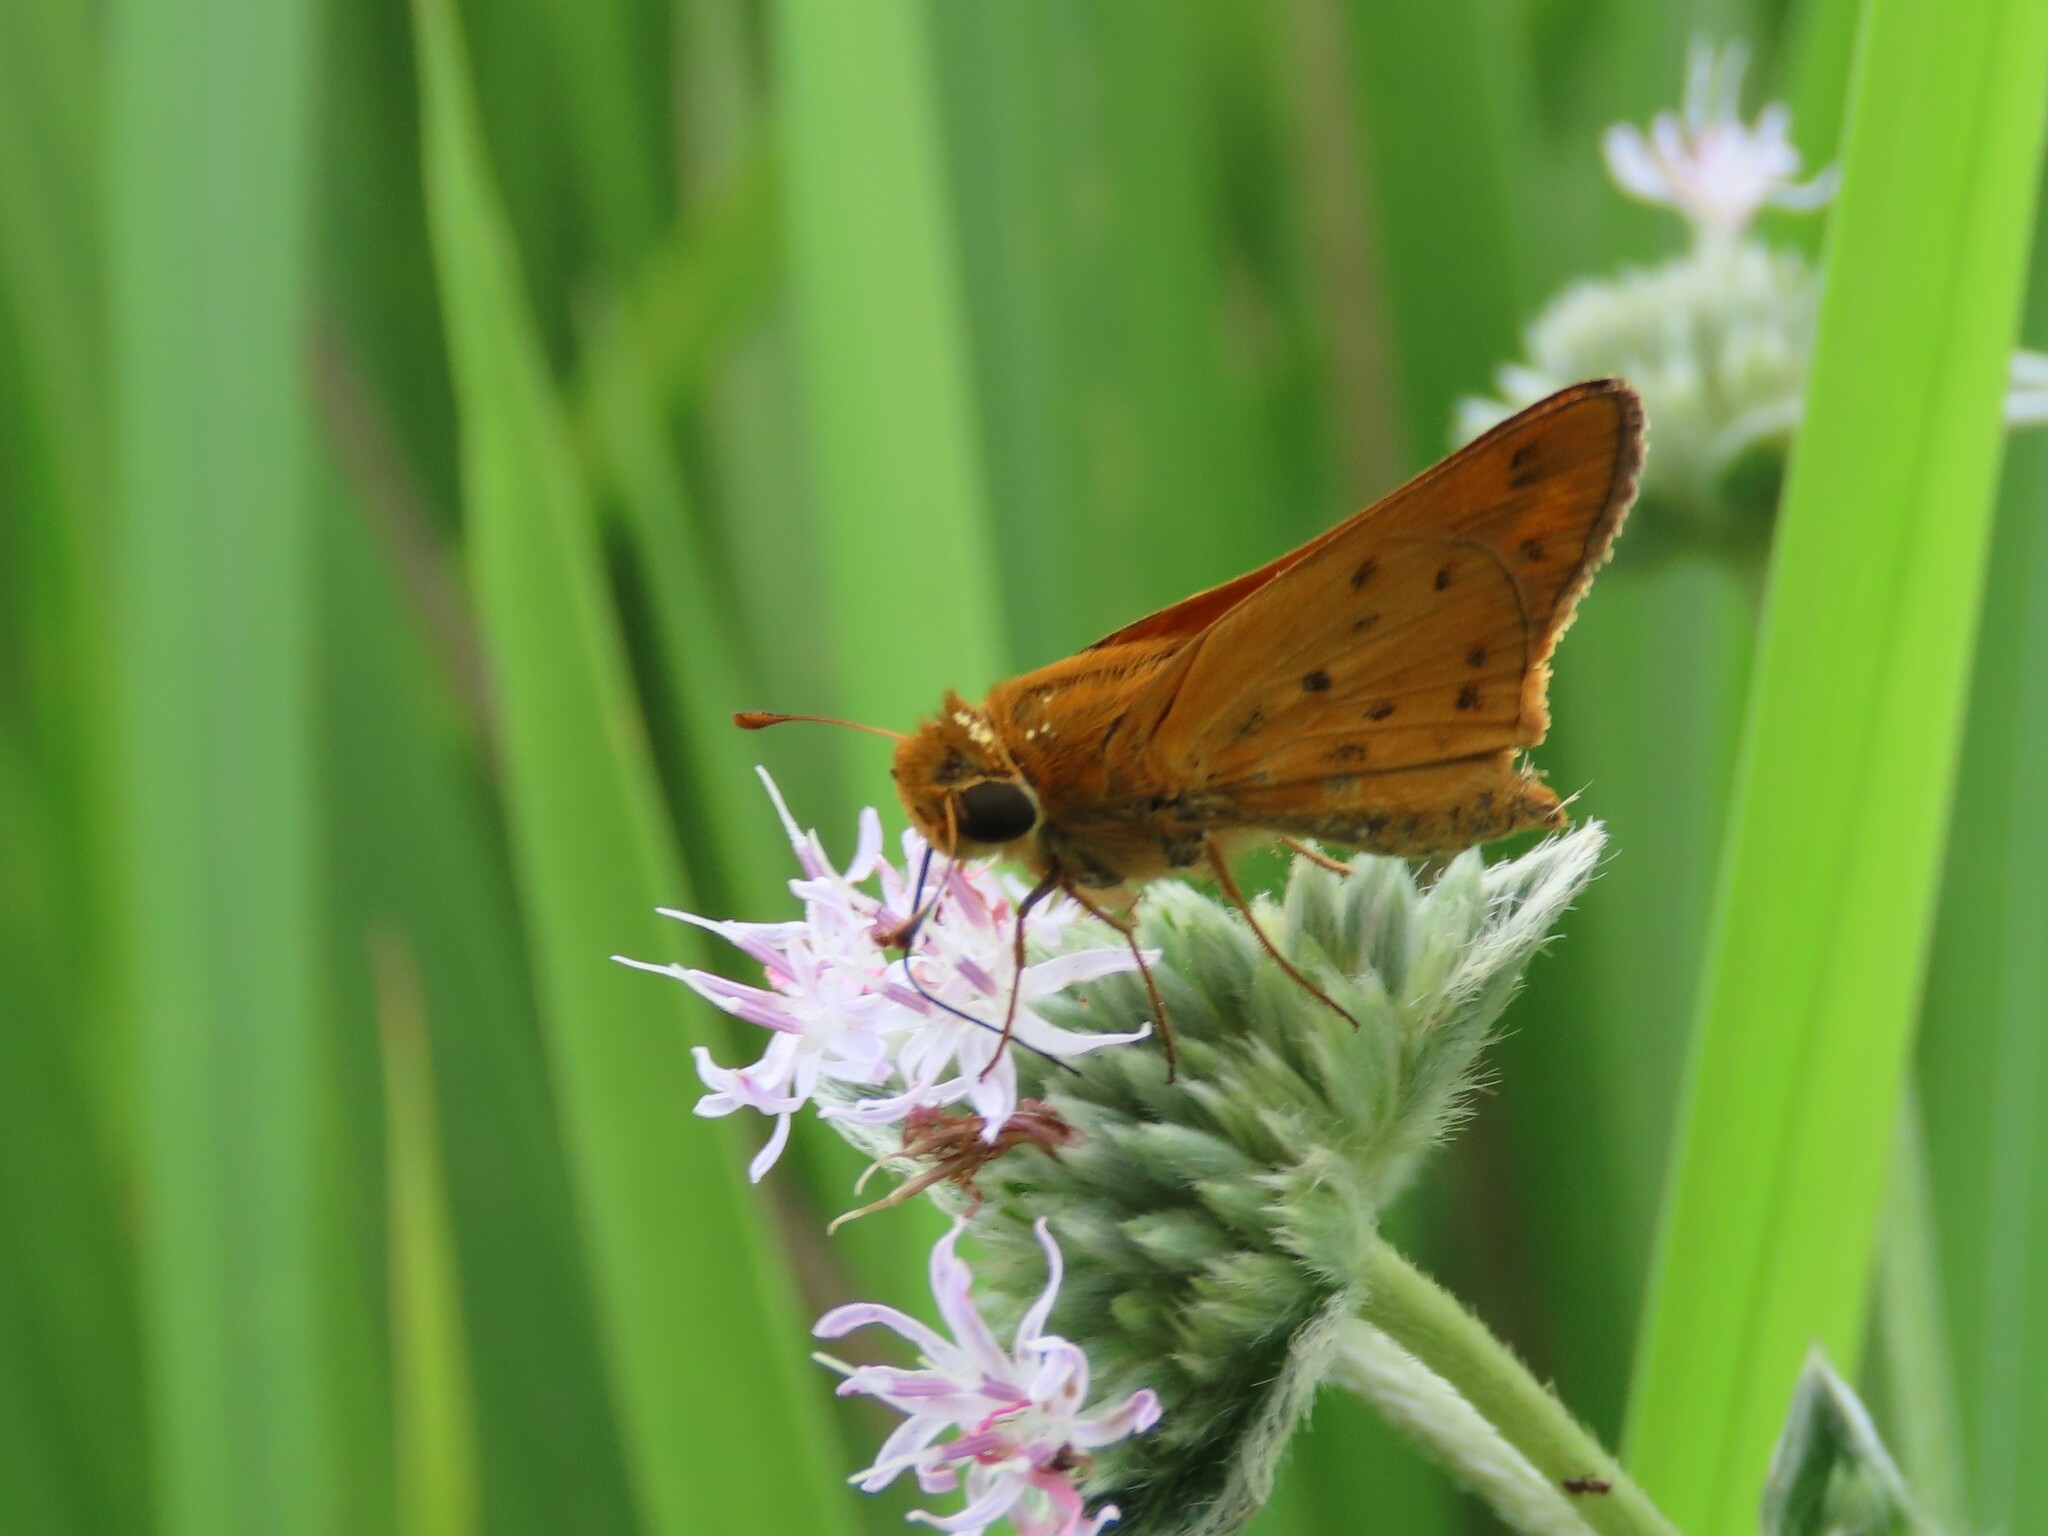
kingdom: Animalia
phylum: Arthropoda
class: Insecta
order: Lepidoptera
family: Hesperiidae
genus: Hylephila
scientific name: Hylephila phyleus
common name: Fiery skipper
